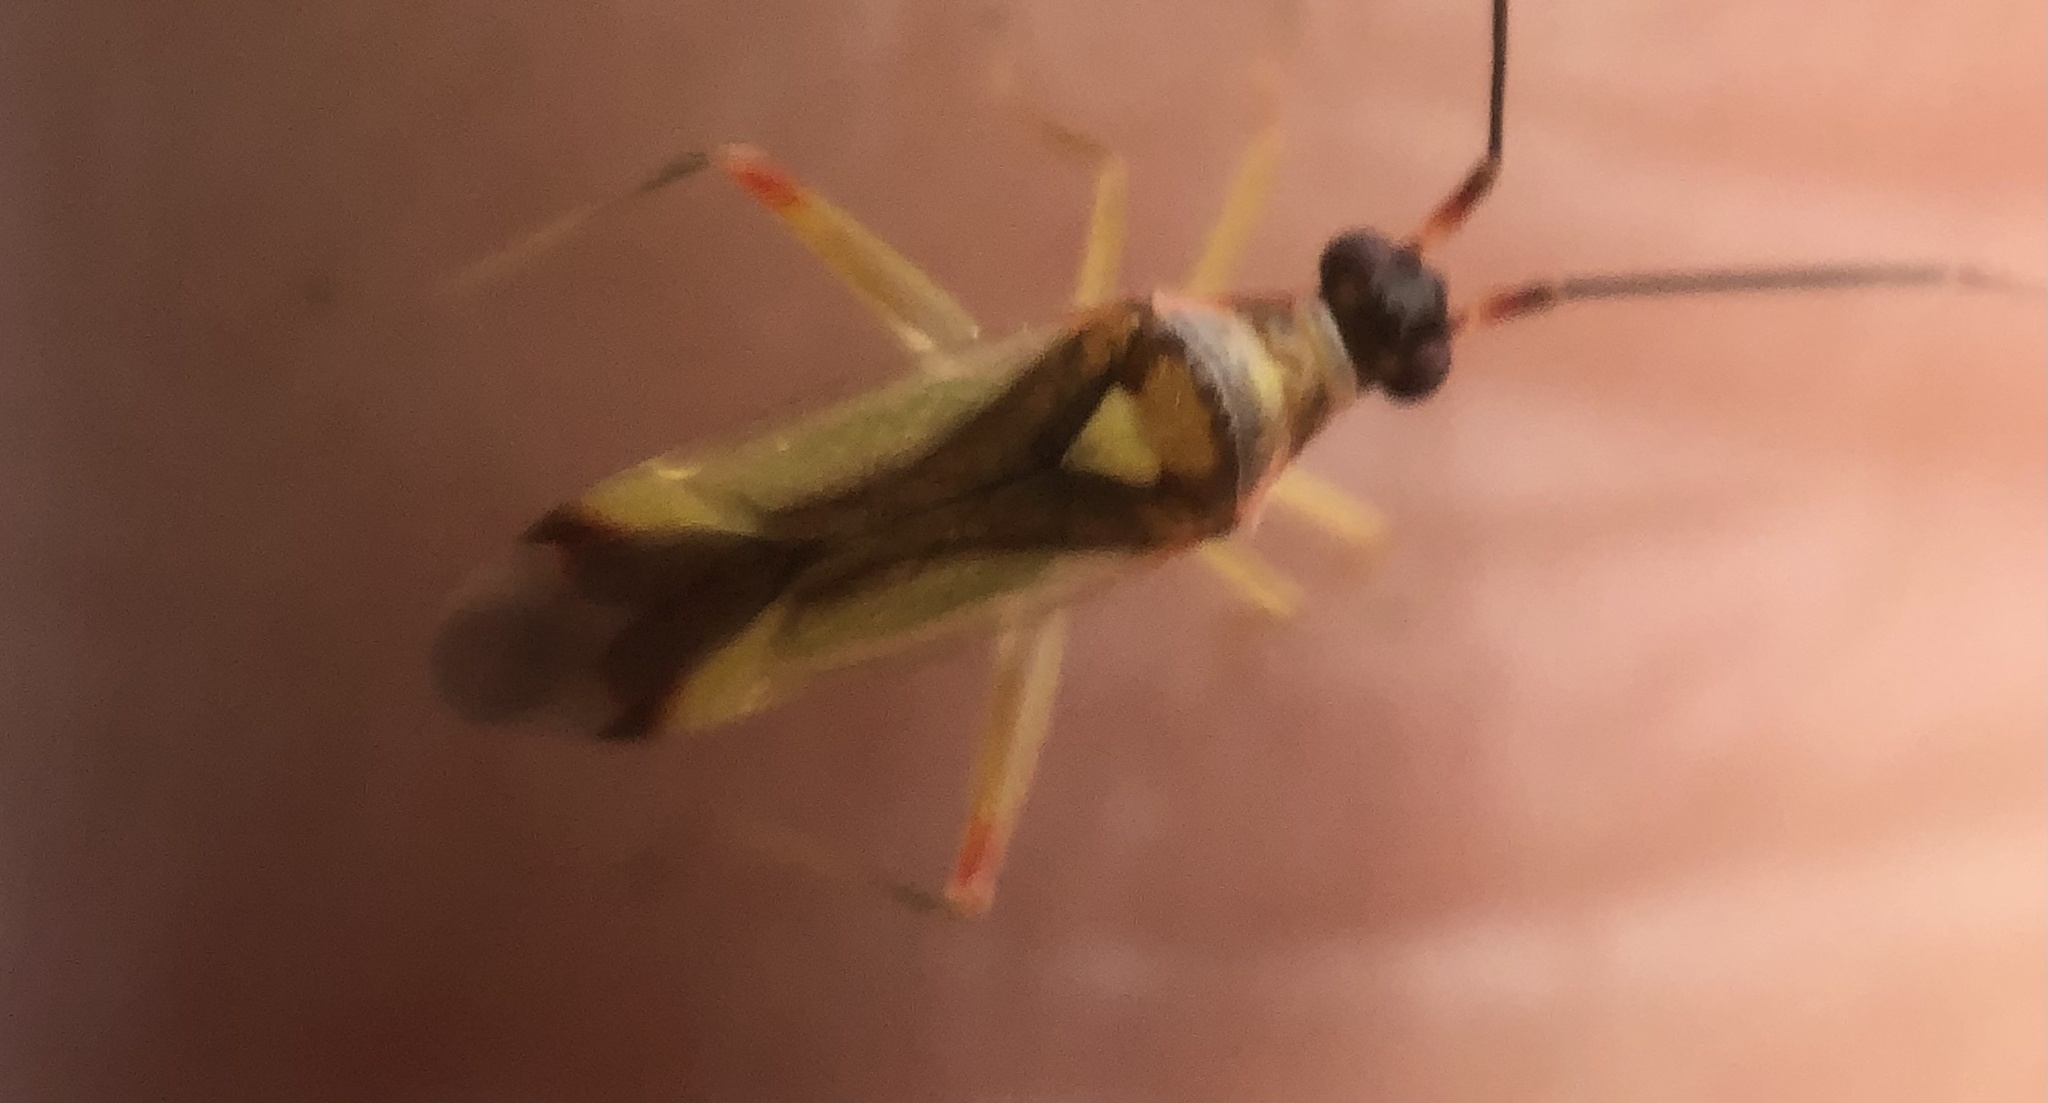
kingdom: Animalia
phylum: Arthropoda
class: Insecta
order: Hemiptera
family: Miridae
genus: Campyloneura
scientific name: Campyloneura virgula
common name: Predatory bug
